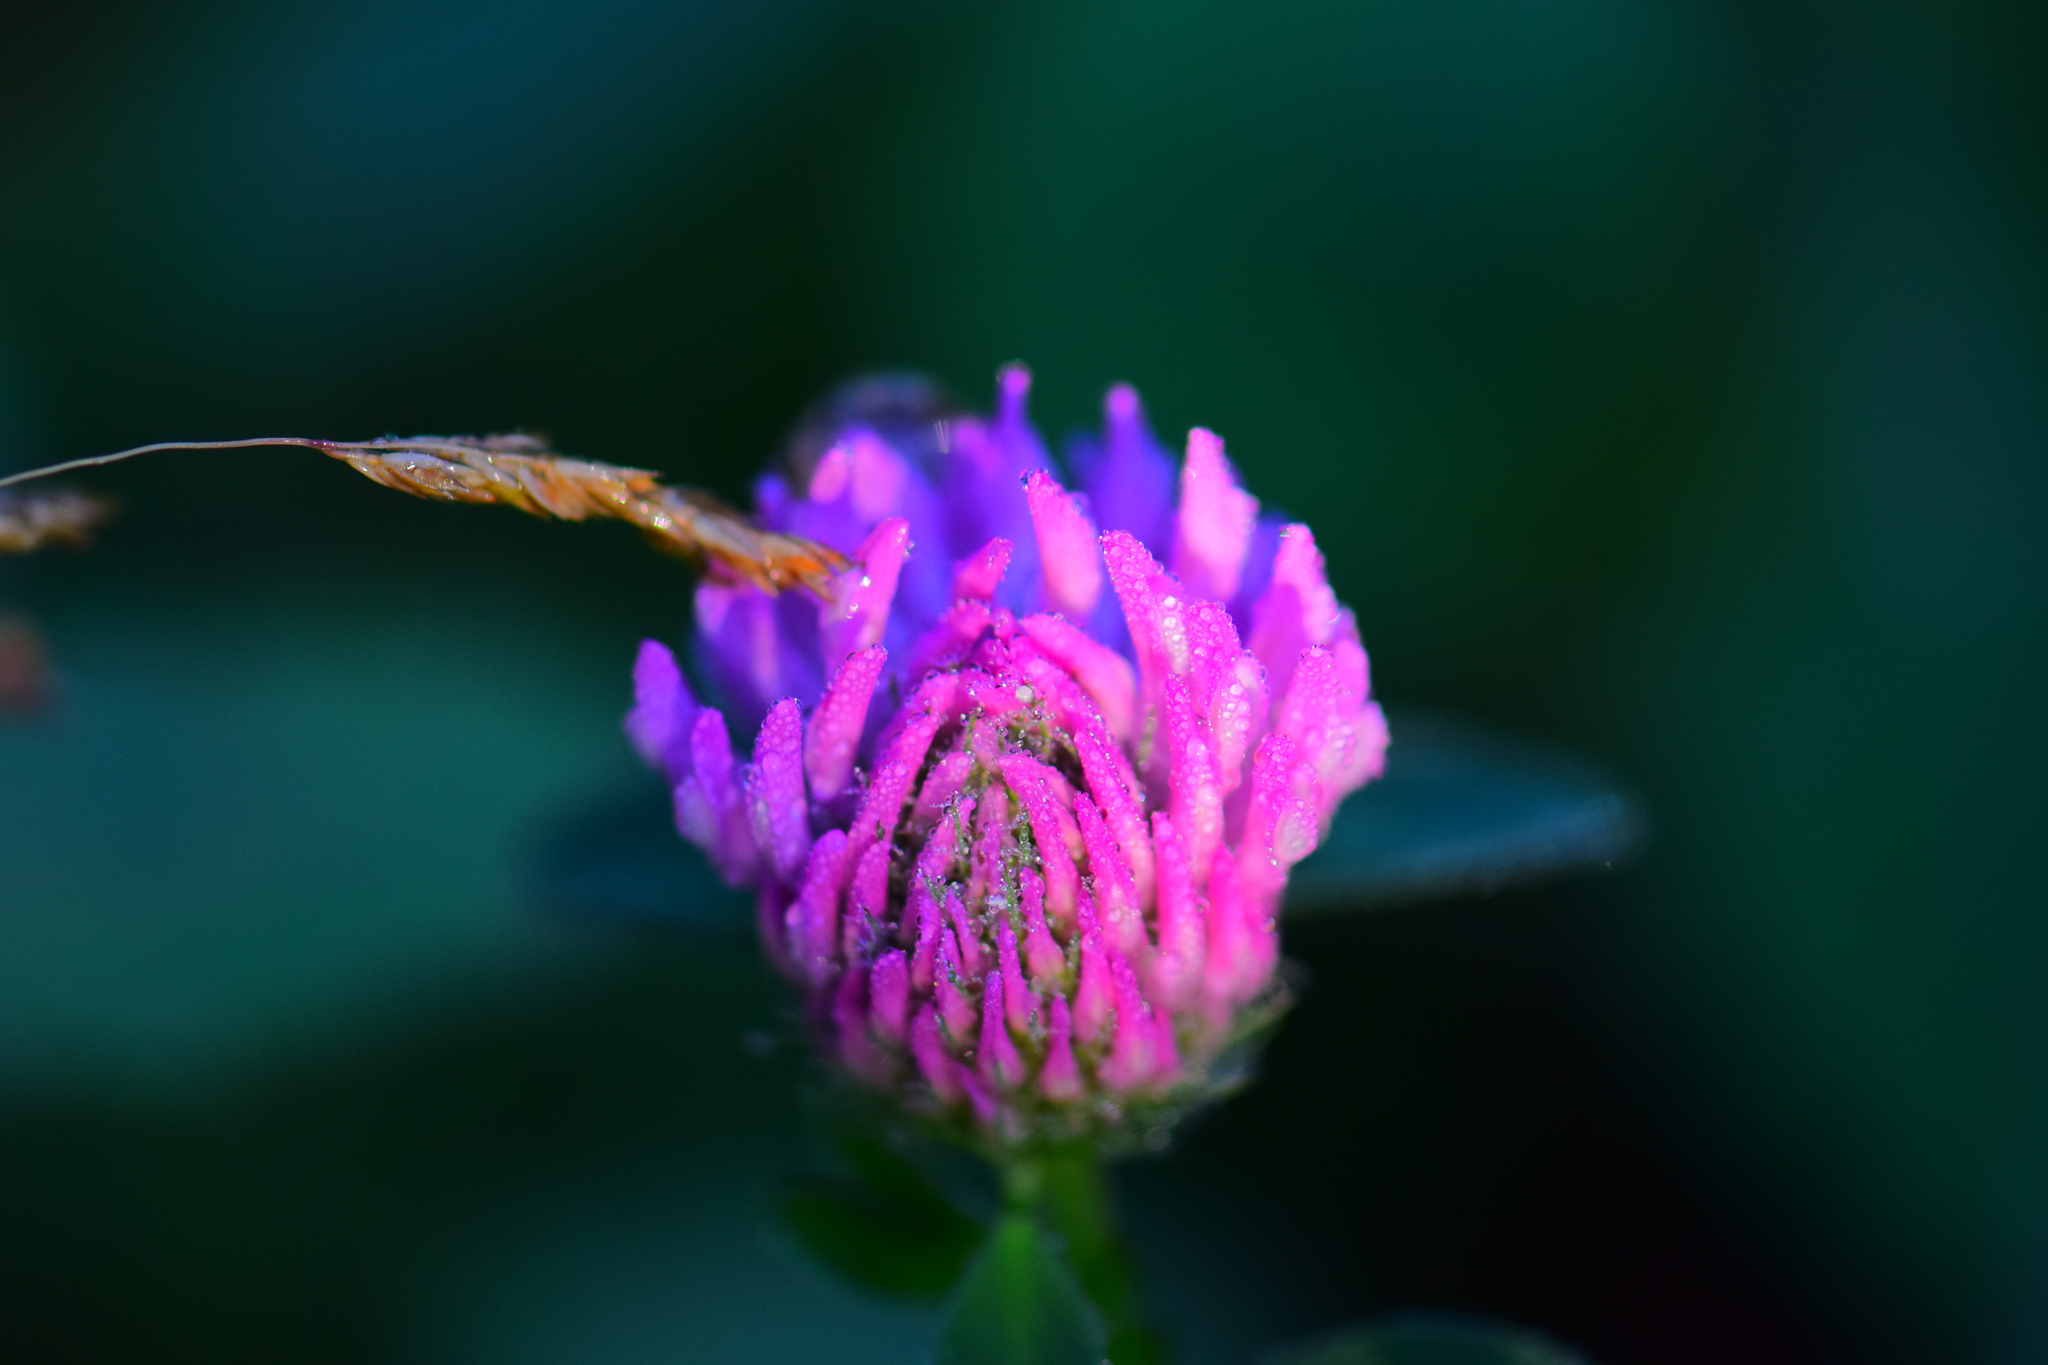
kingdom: Plantae
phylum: Tracheophyta
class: Magnoliopsida
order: Fabales
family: Fabaceae
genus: Trifolium
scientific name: Trifolium pratense
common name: Red clover
